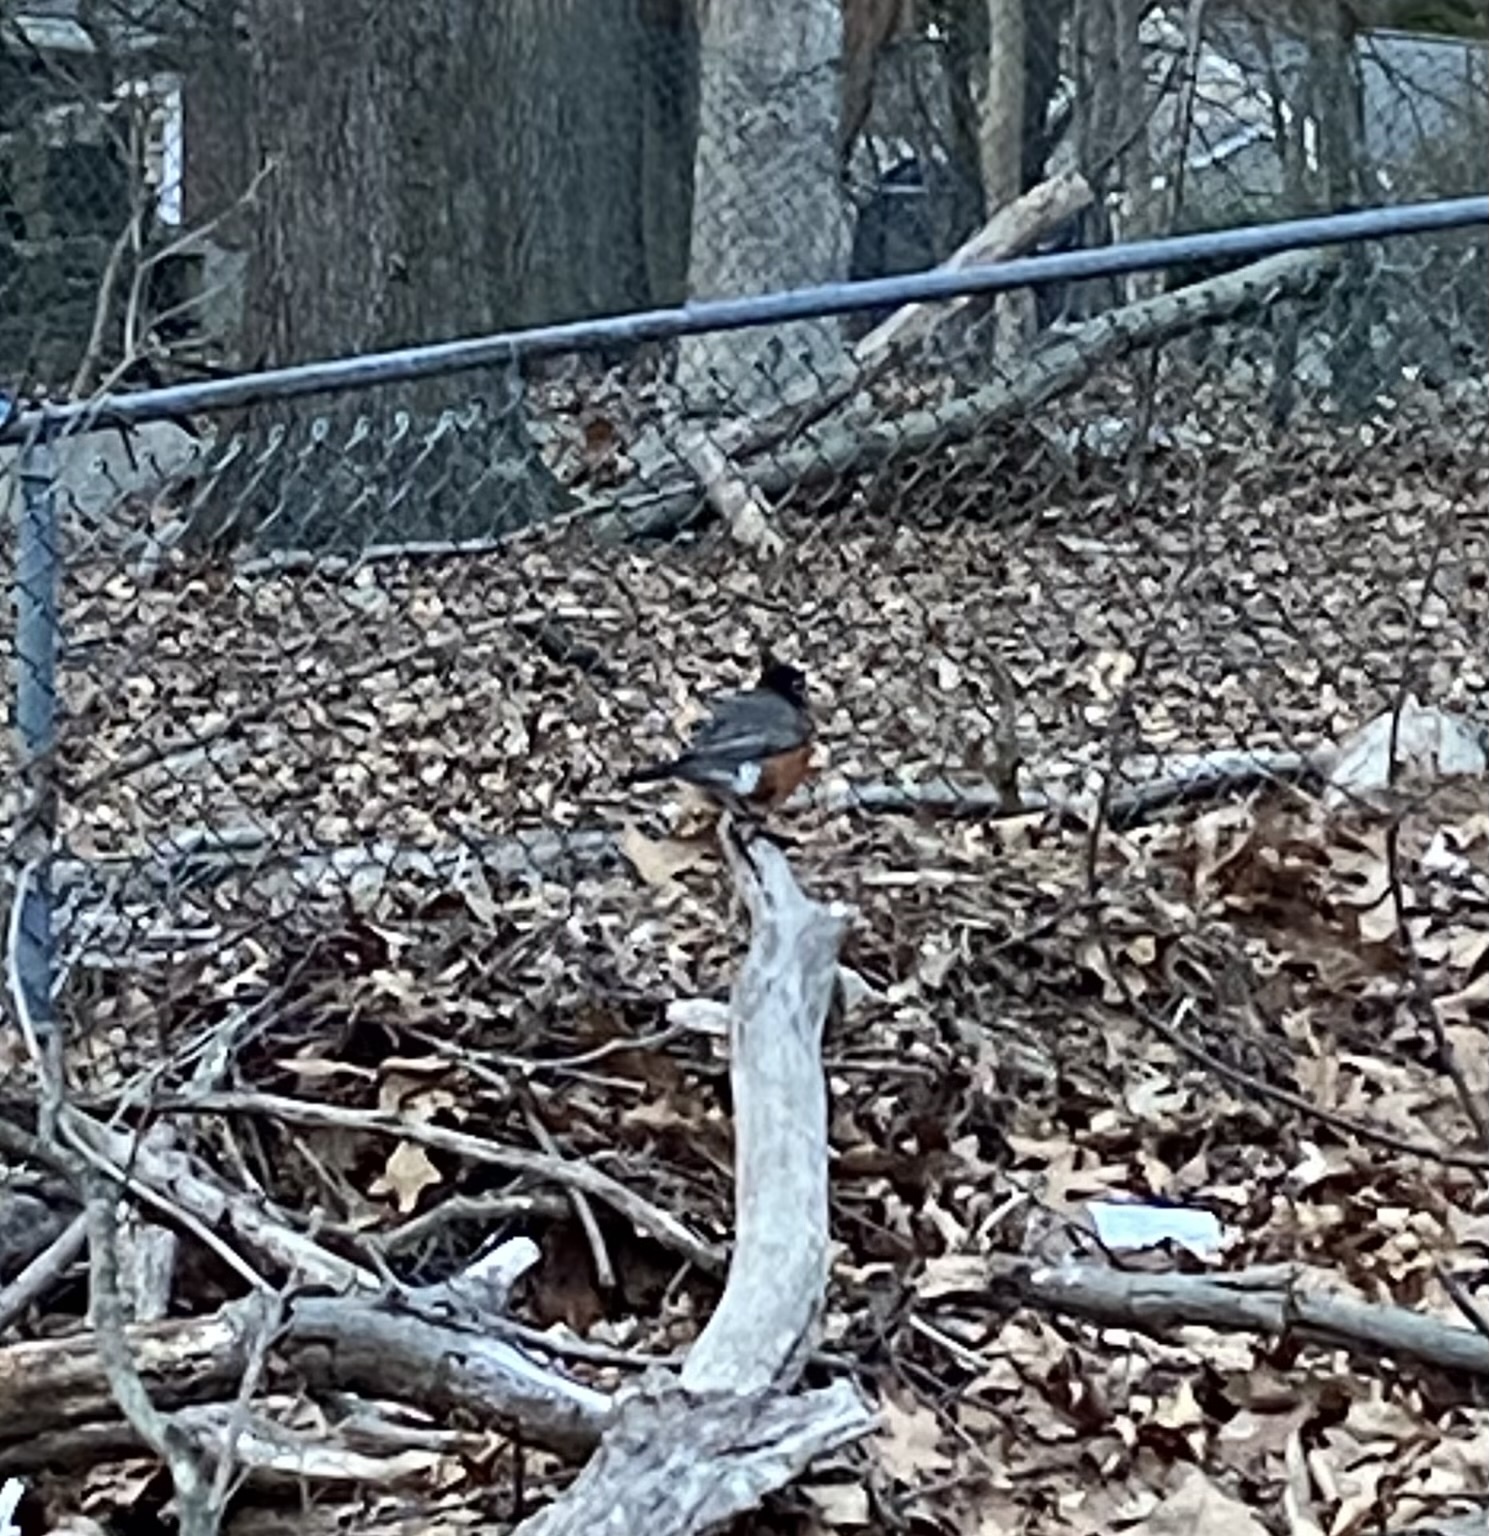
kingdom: Animalia
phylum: Chordata
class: Aves
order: Passeriformes
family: Turdidae
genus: Turdus
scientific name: Turdus migratorius
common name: American robin
